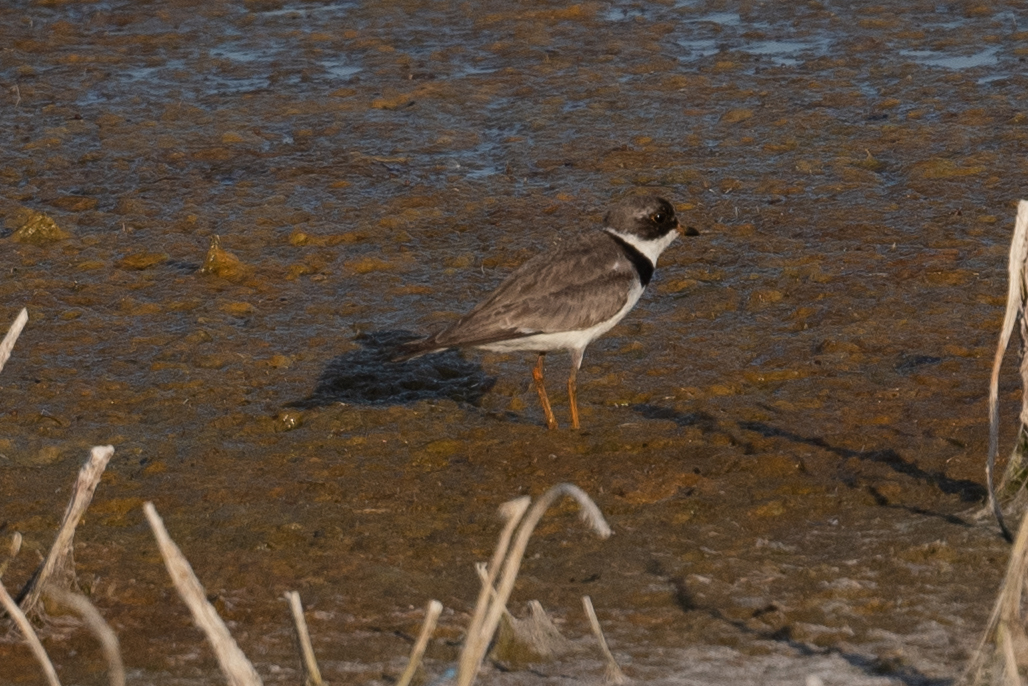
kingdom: Animalia
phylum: Chordata
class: Aves
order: Charadriiformes
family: Charadriidae
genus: Charadrius
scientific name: Charadrius semipalmatus
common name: Semipalmated plover
